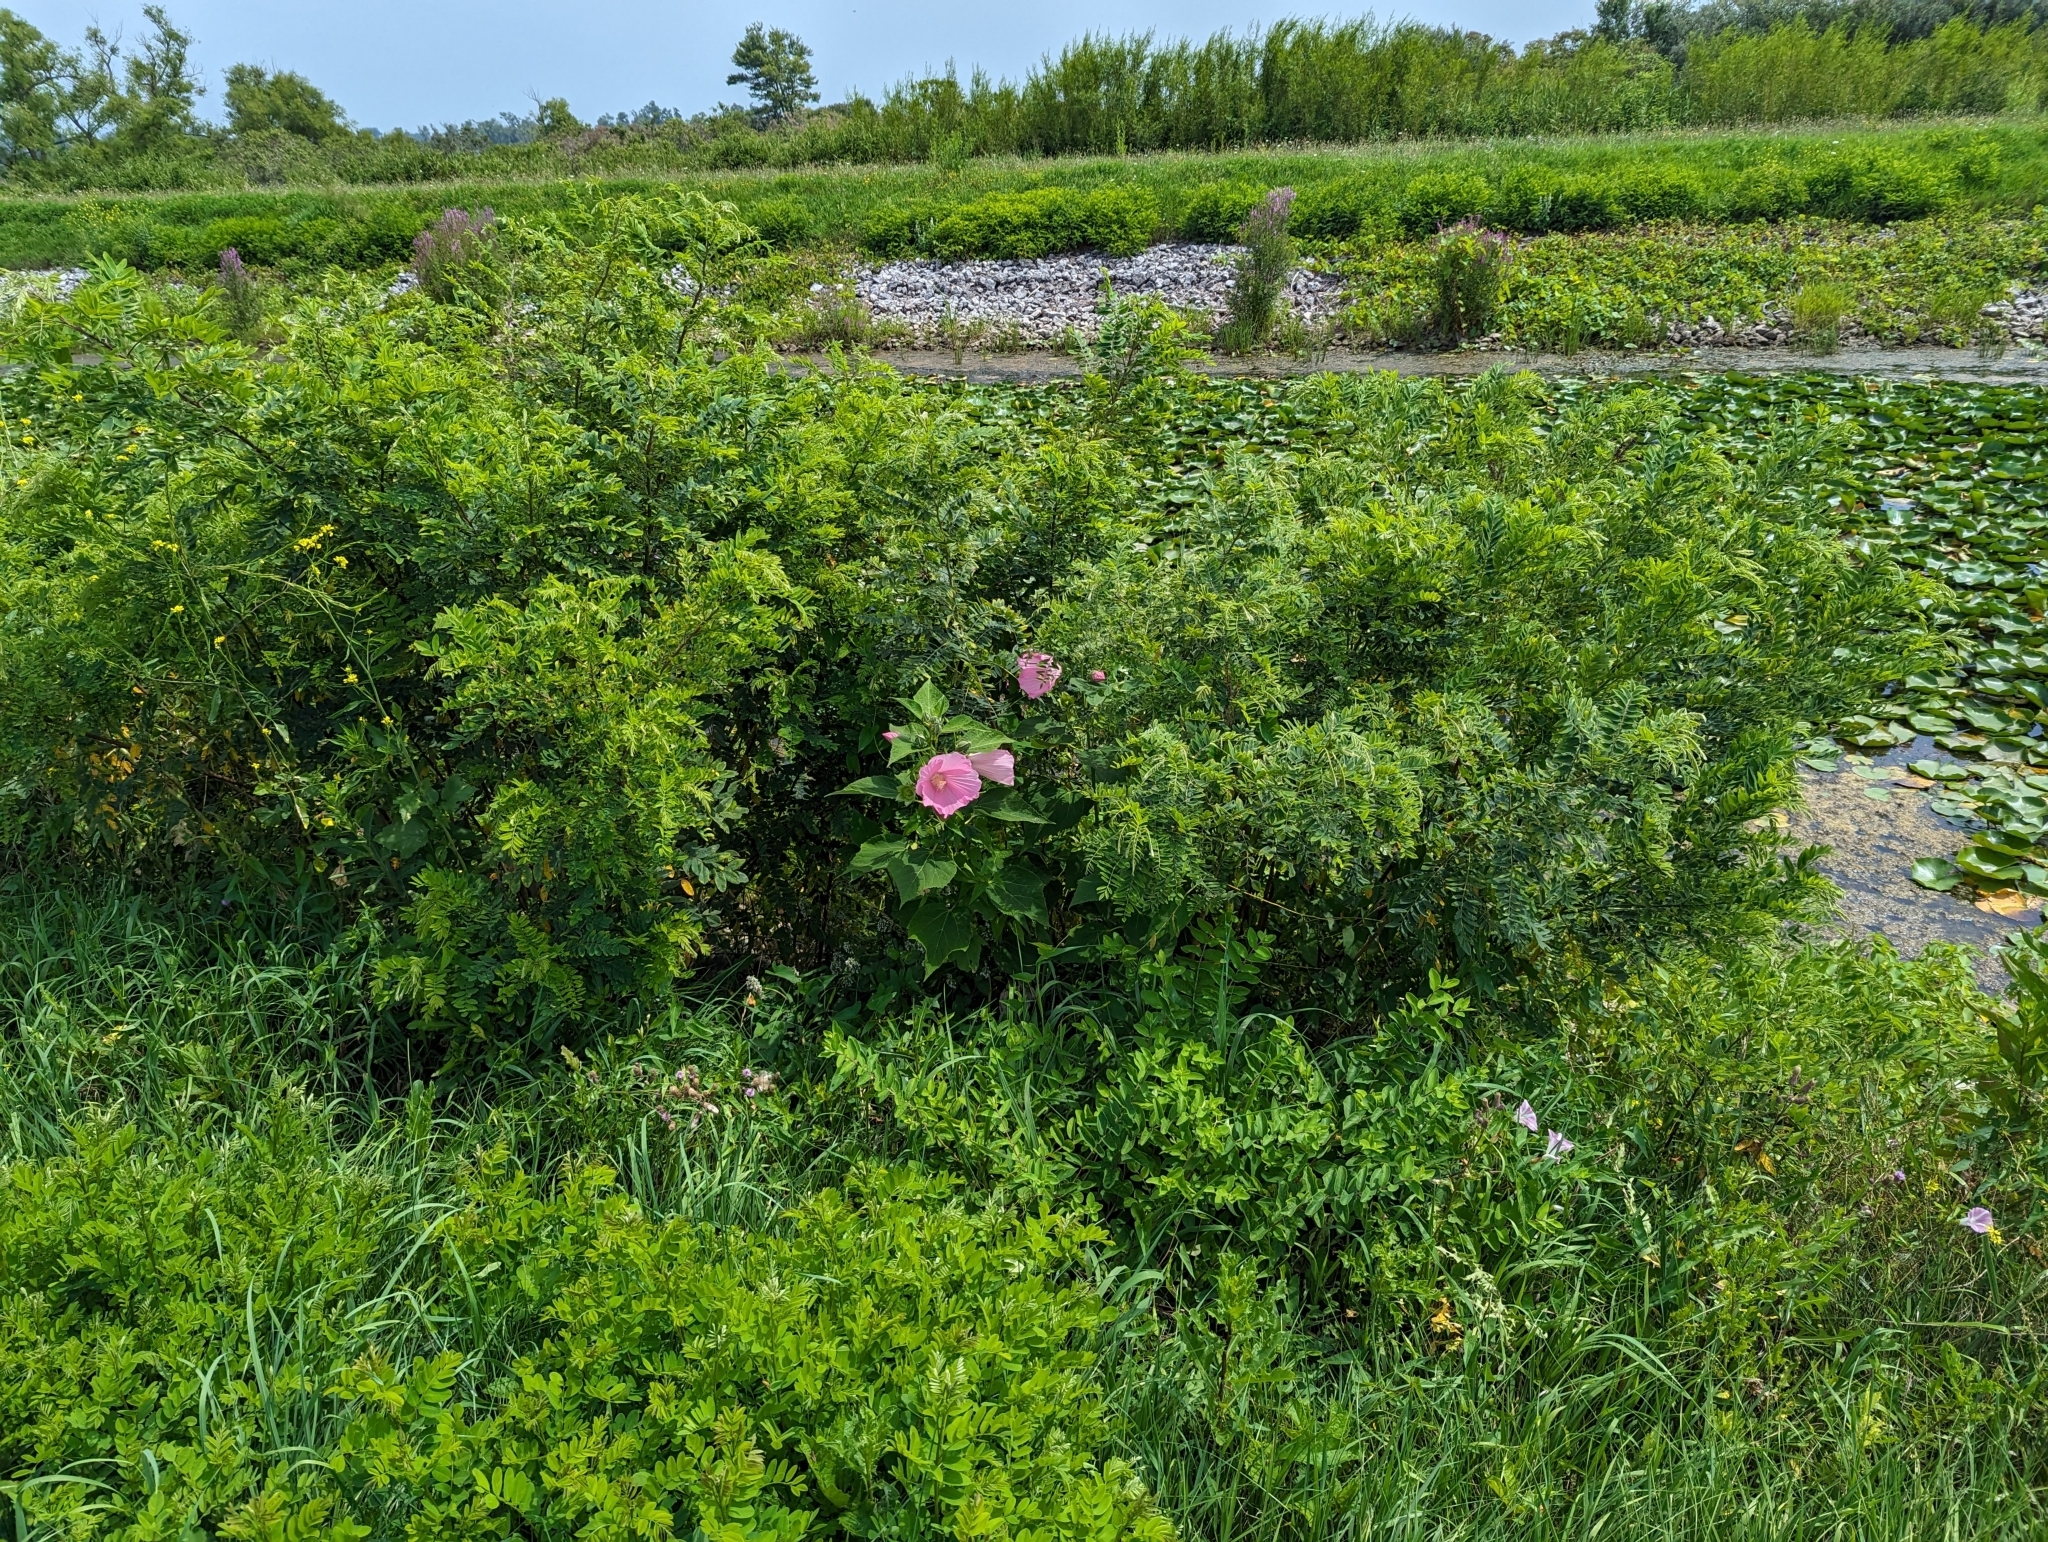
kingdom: Plantae
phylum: Tracheophyta
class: Magnoliopsida
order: Malvales
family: Malvaceae
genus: Hibiscus
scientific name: Hibiscus moscheutos
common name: Common rose-mallow
